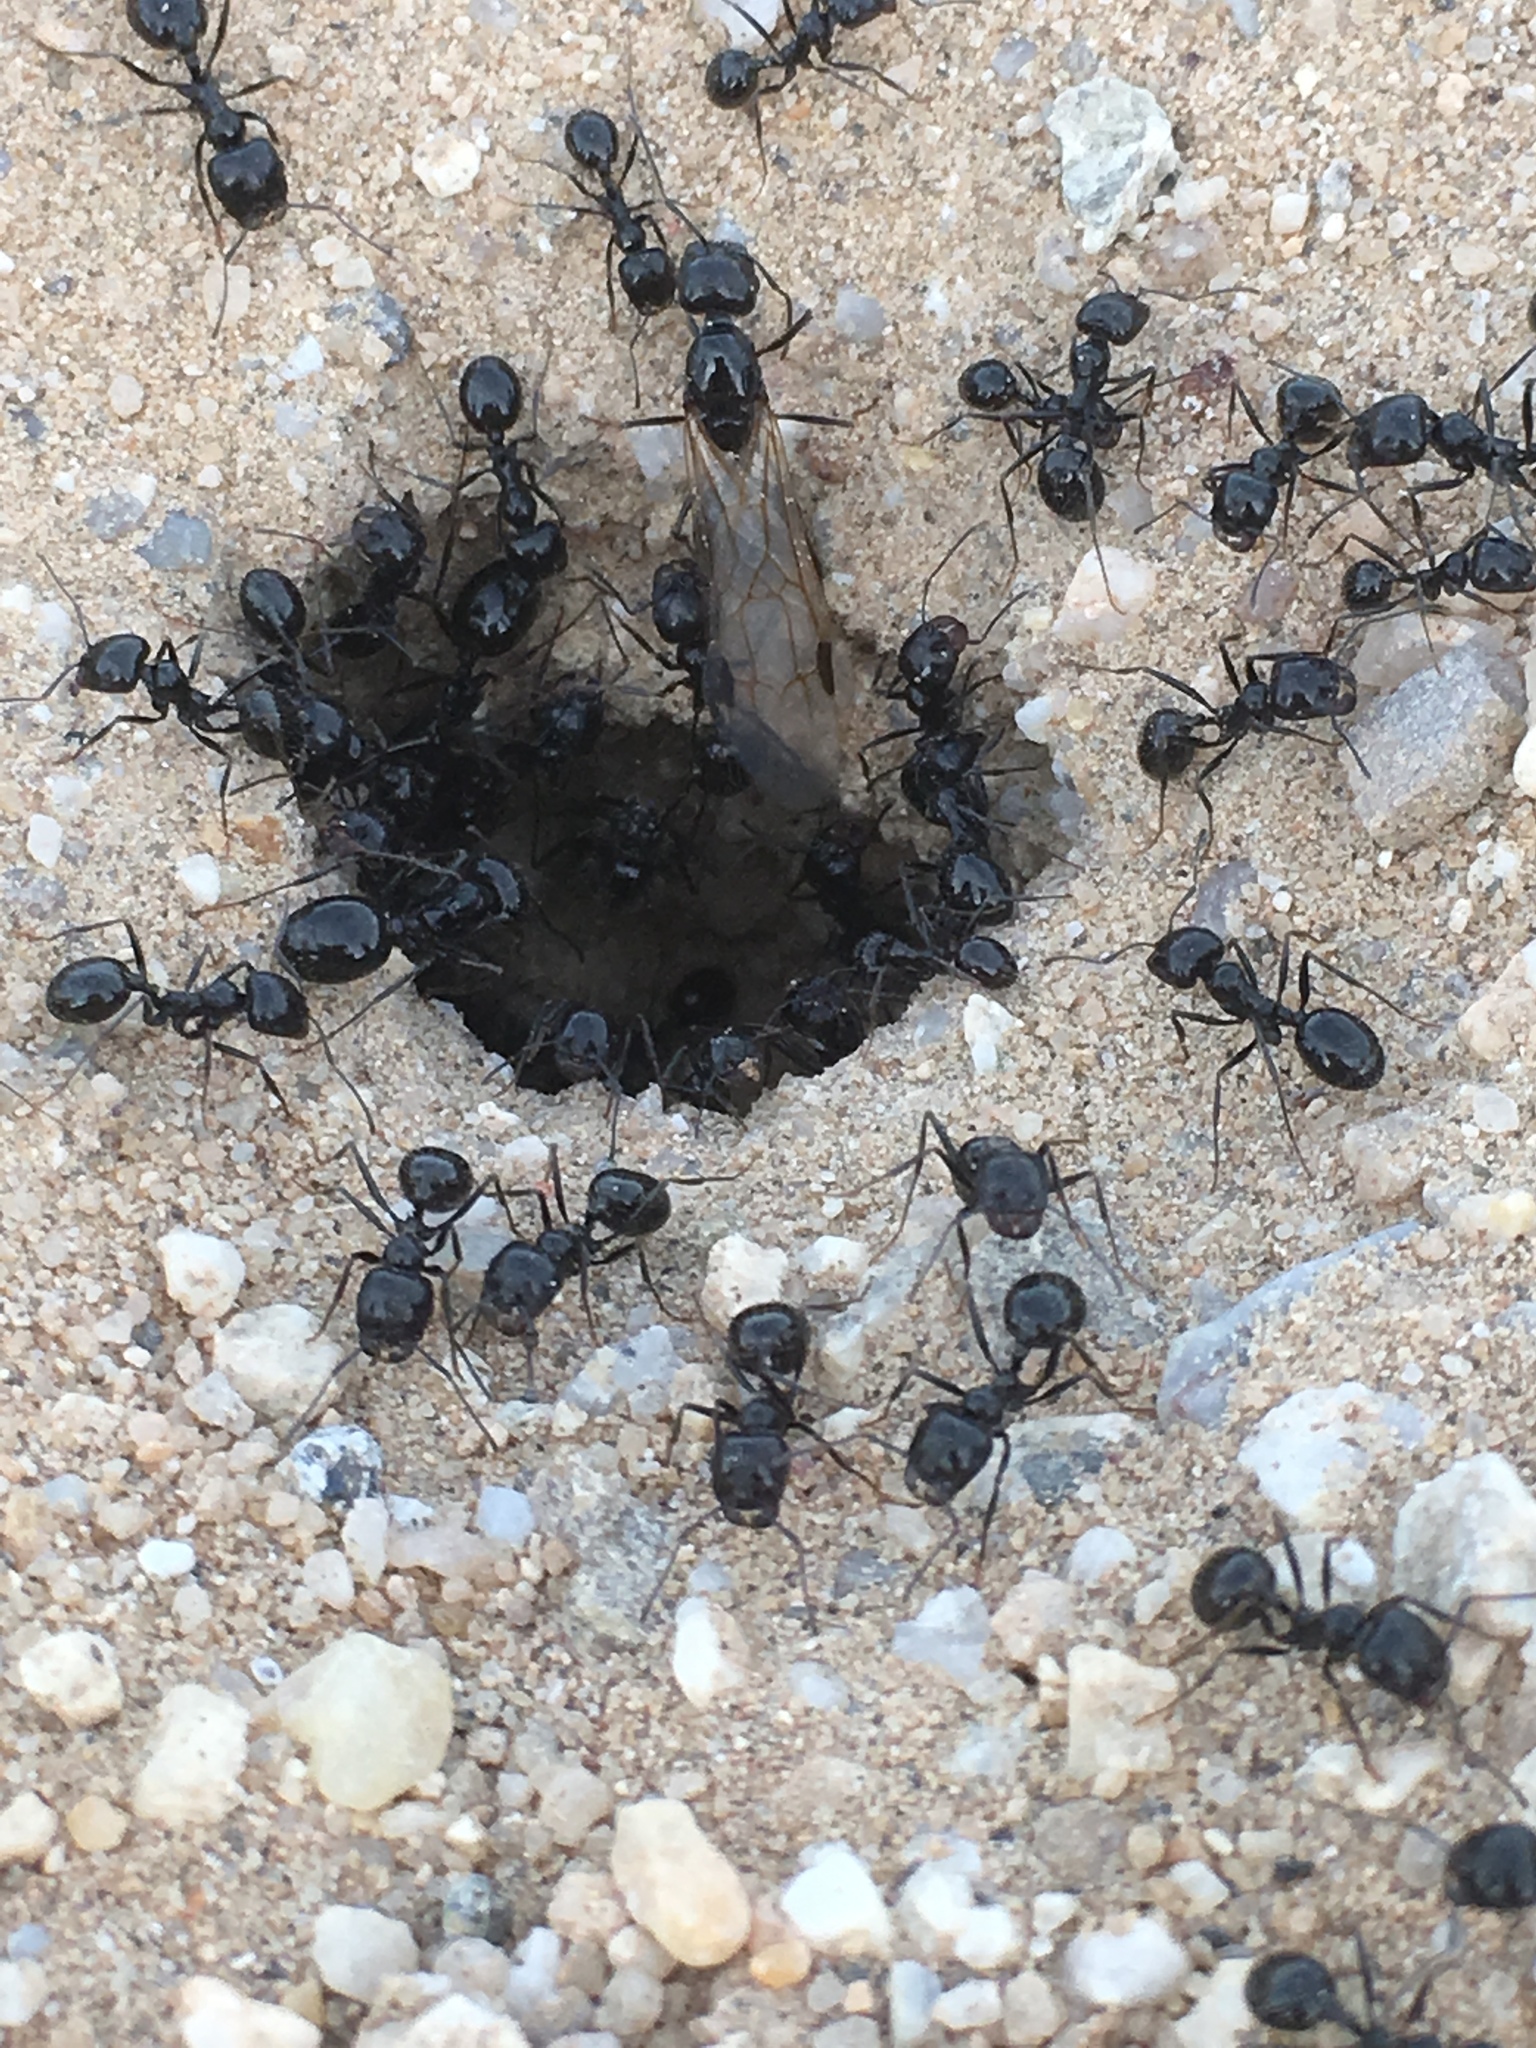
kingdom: Animalia
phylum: Arthropoda
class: Insecta
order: Hymenoptera
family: Formicidae
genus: Messor
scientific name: Messor pergandei
